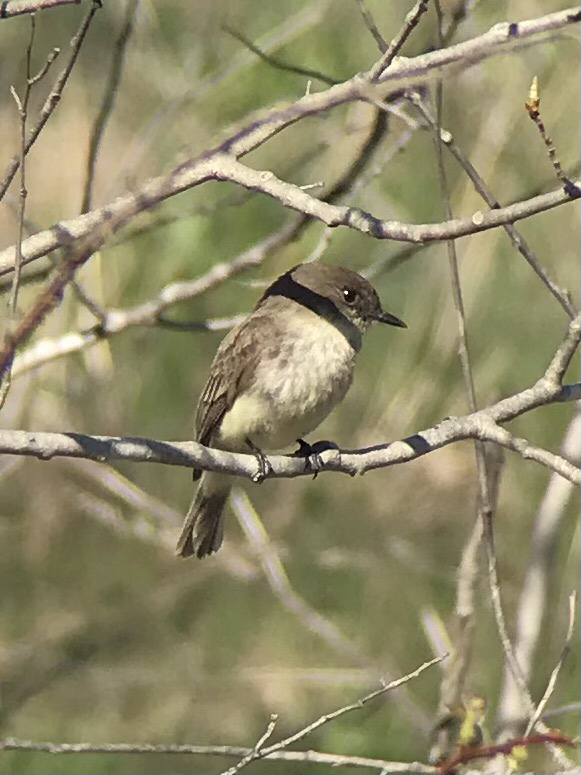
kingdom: Animalia
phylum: Chordata
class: Aves
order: Passeriformes
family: Tyrannidae
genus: Sayornis
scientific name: Sayornis phoebe
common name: Eastern phoebe
